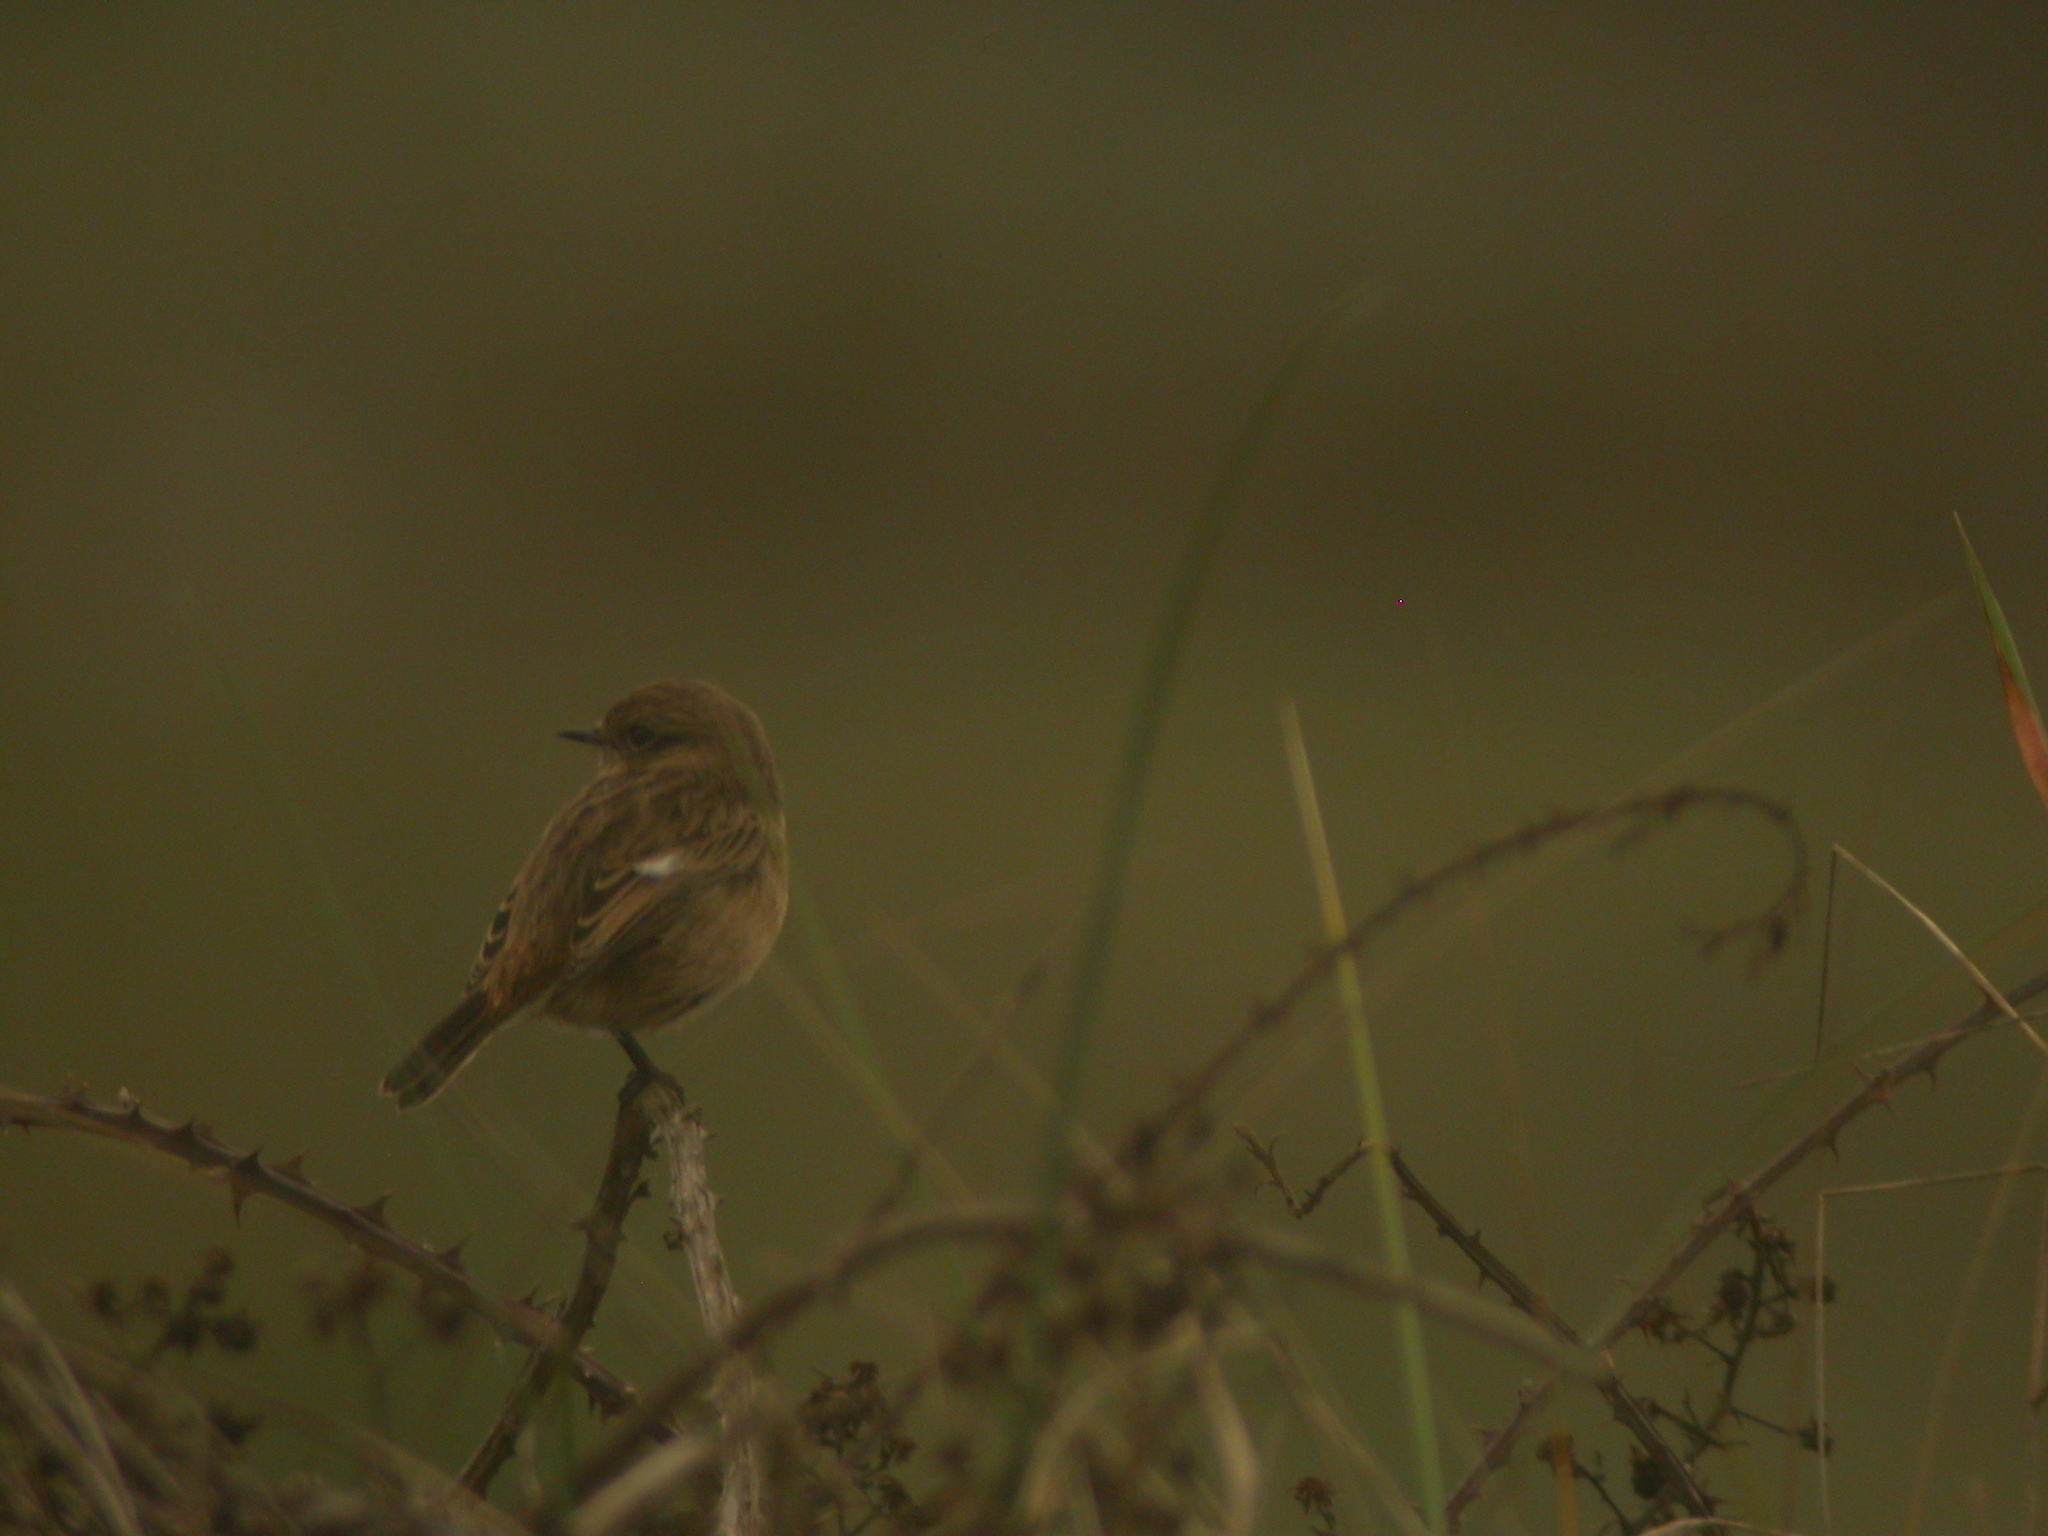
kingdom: Animalia
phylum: Chordata
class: Aves
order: Passeriformes
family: Muscicapidae
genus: Saxicola
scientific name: Saxicola rubicola
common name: European stonechat
